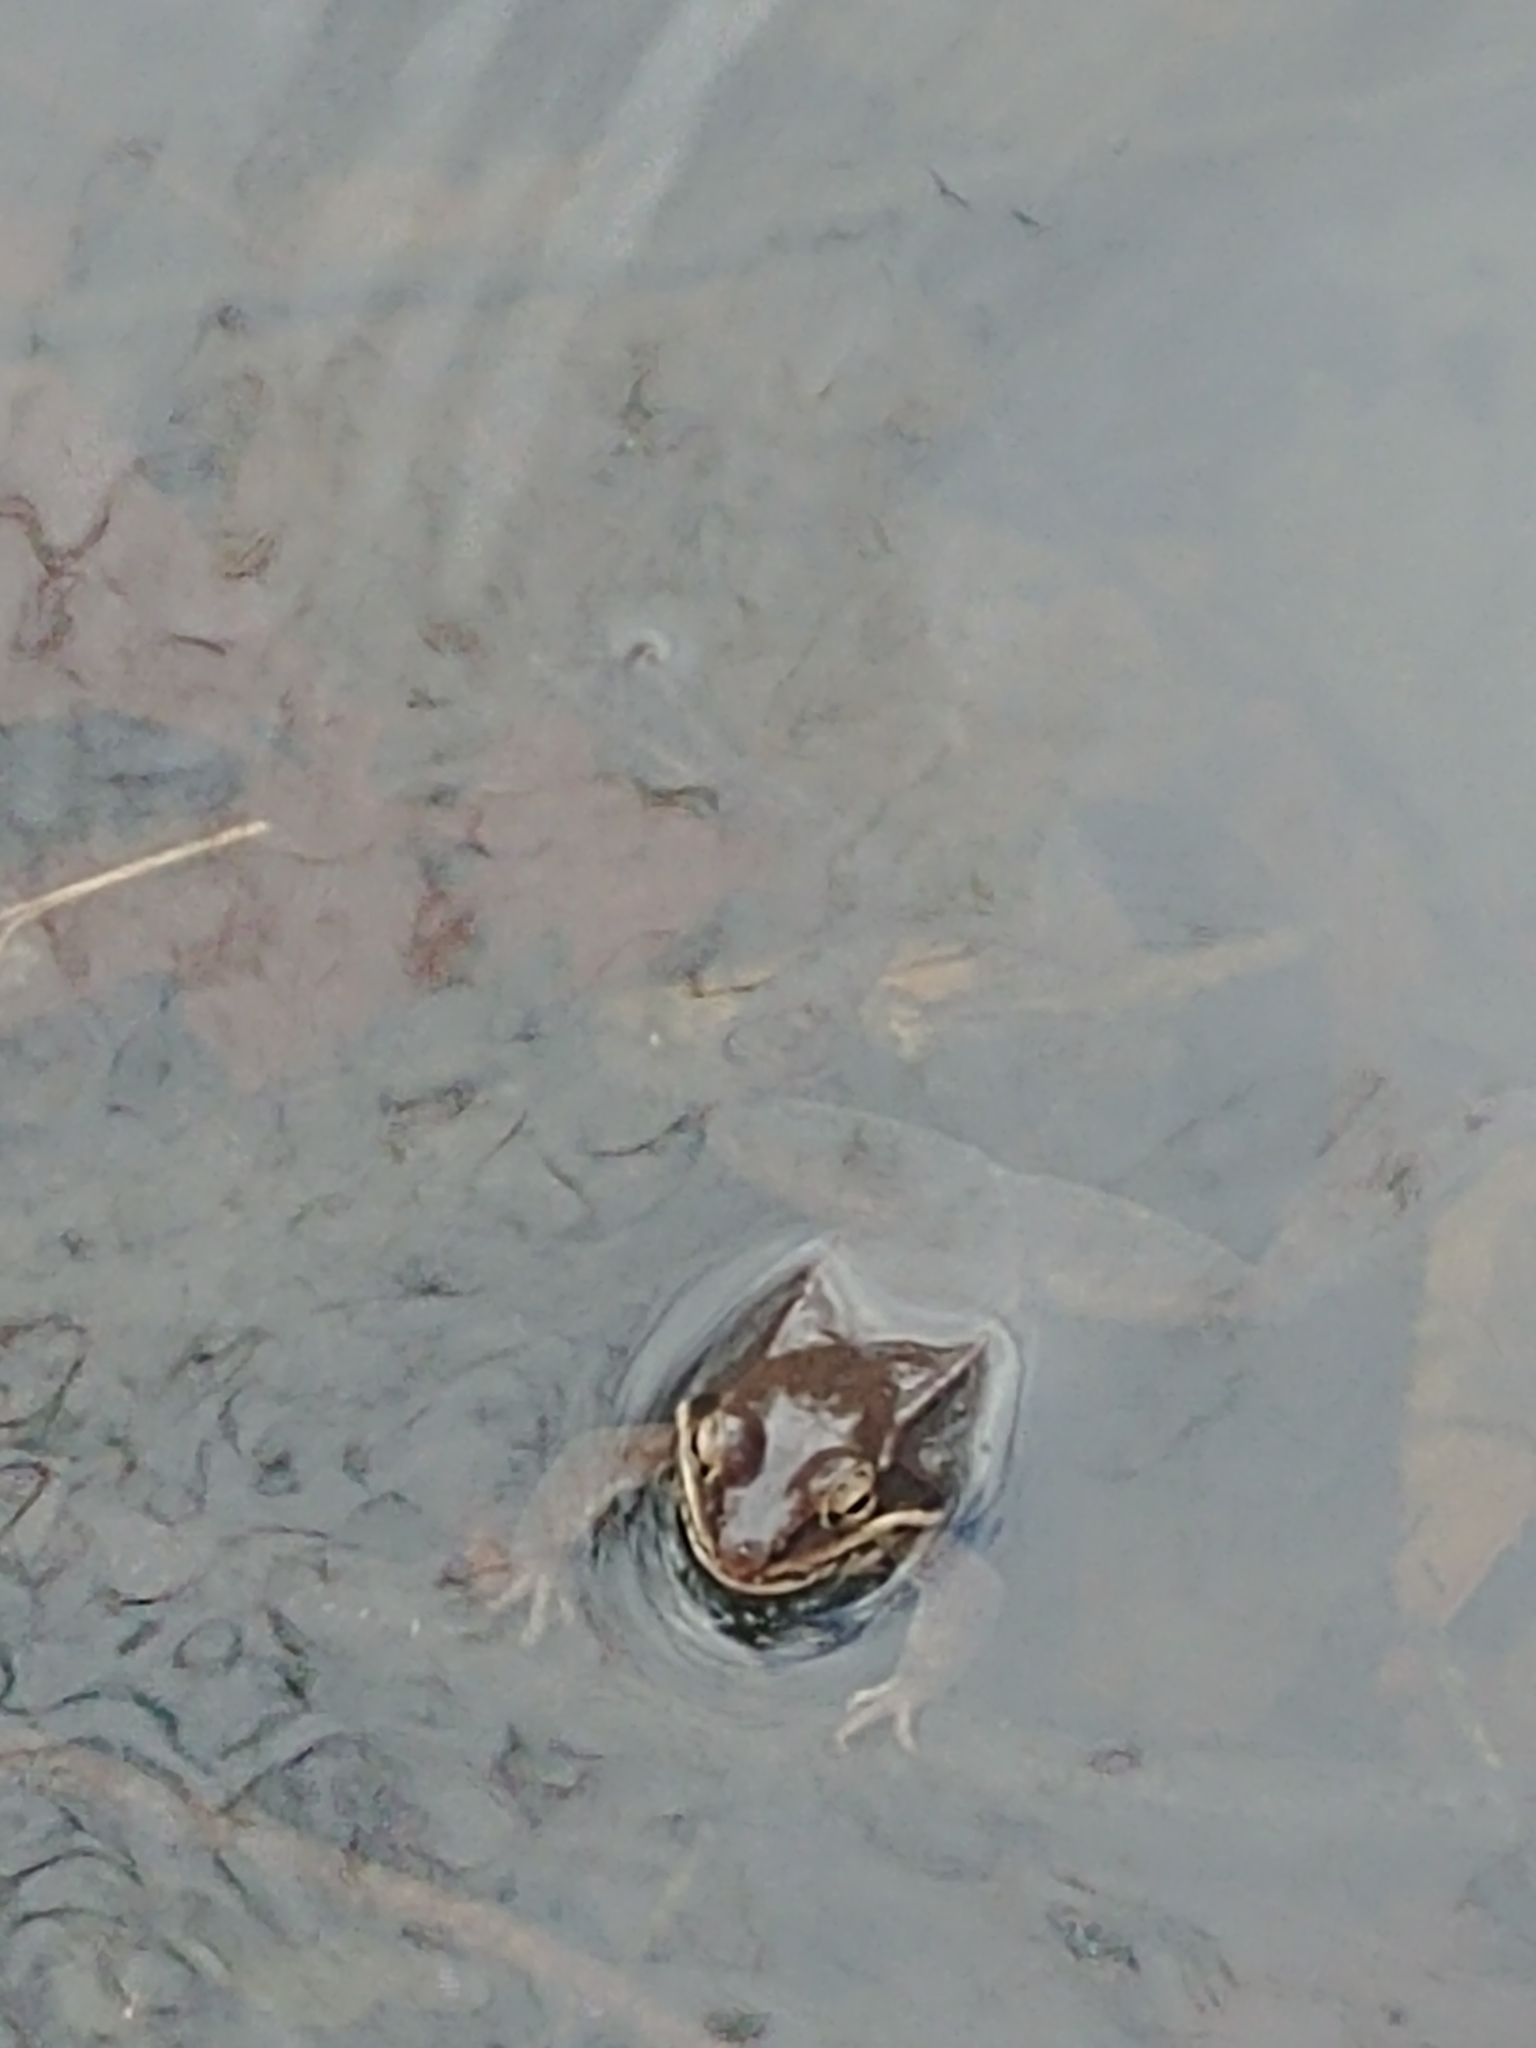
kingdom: Animalia
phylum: Chordata
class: Amphibia
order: Anura
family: Ranidae
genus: Lithobates
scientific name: Lithobates sylvaticus
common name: Wood frog
